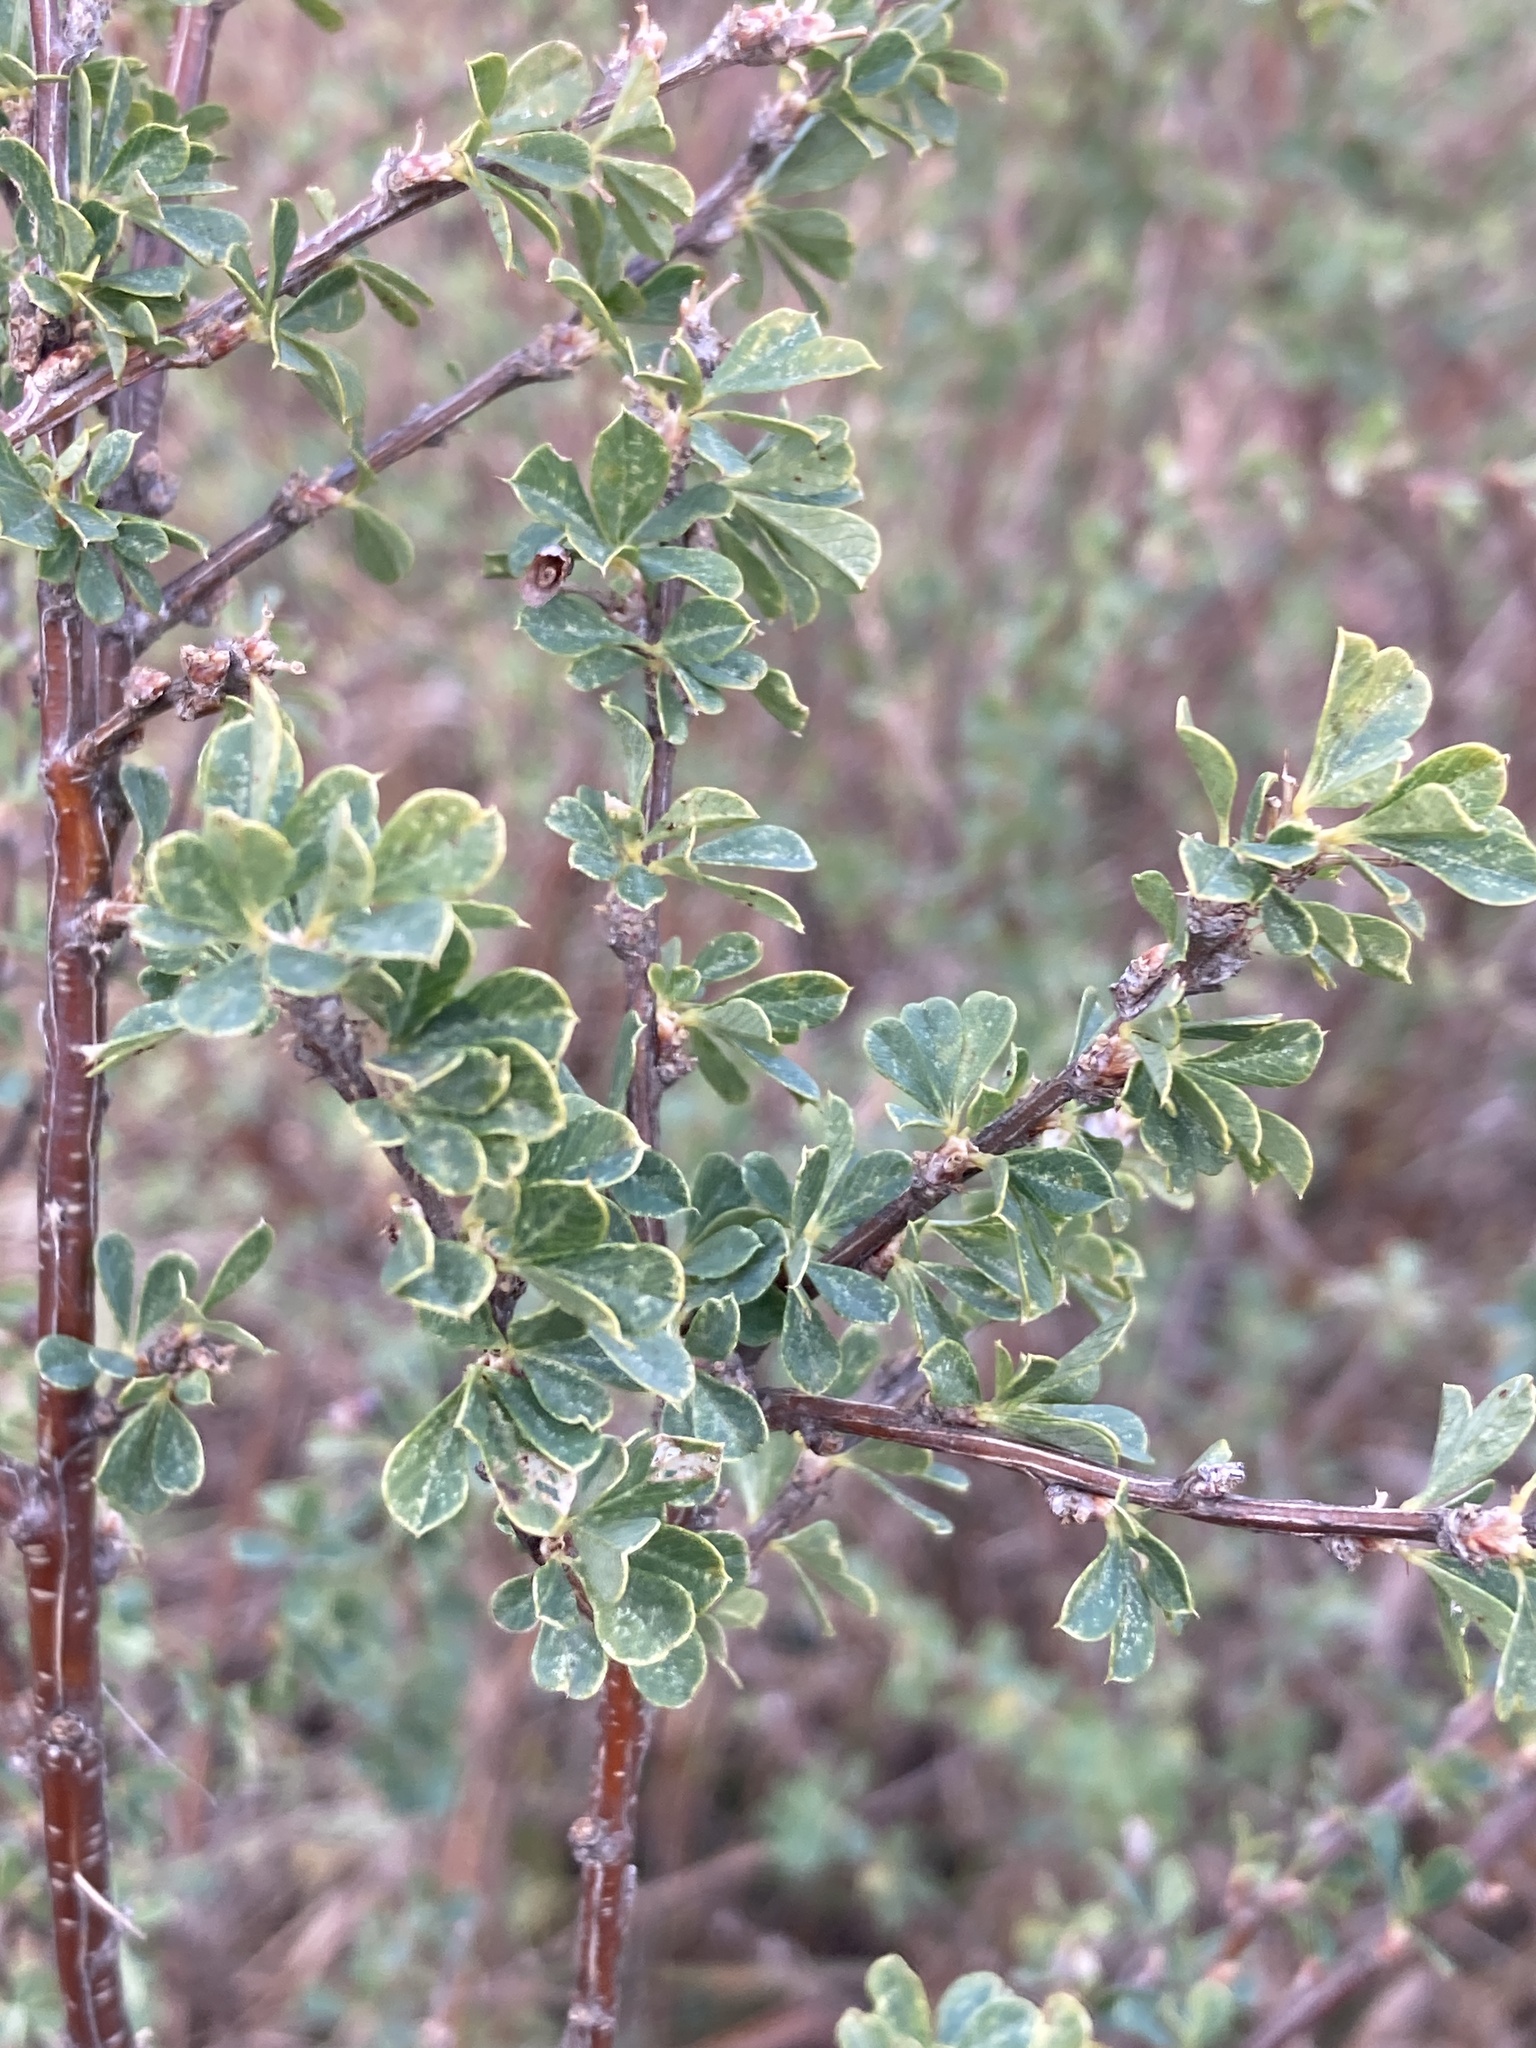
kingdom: Plantae
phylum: Tracheophyta
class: Magnoliopsida
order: Fabales
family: Fabaceae
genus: Caragana
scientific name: Caragana frutex
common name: Russian peashrub
